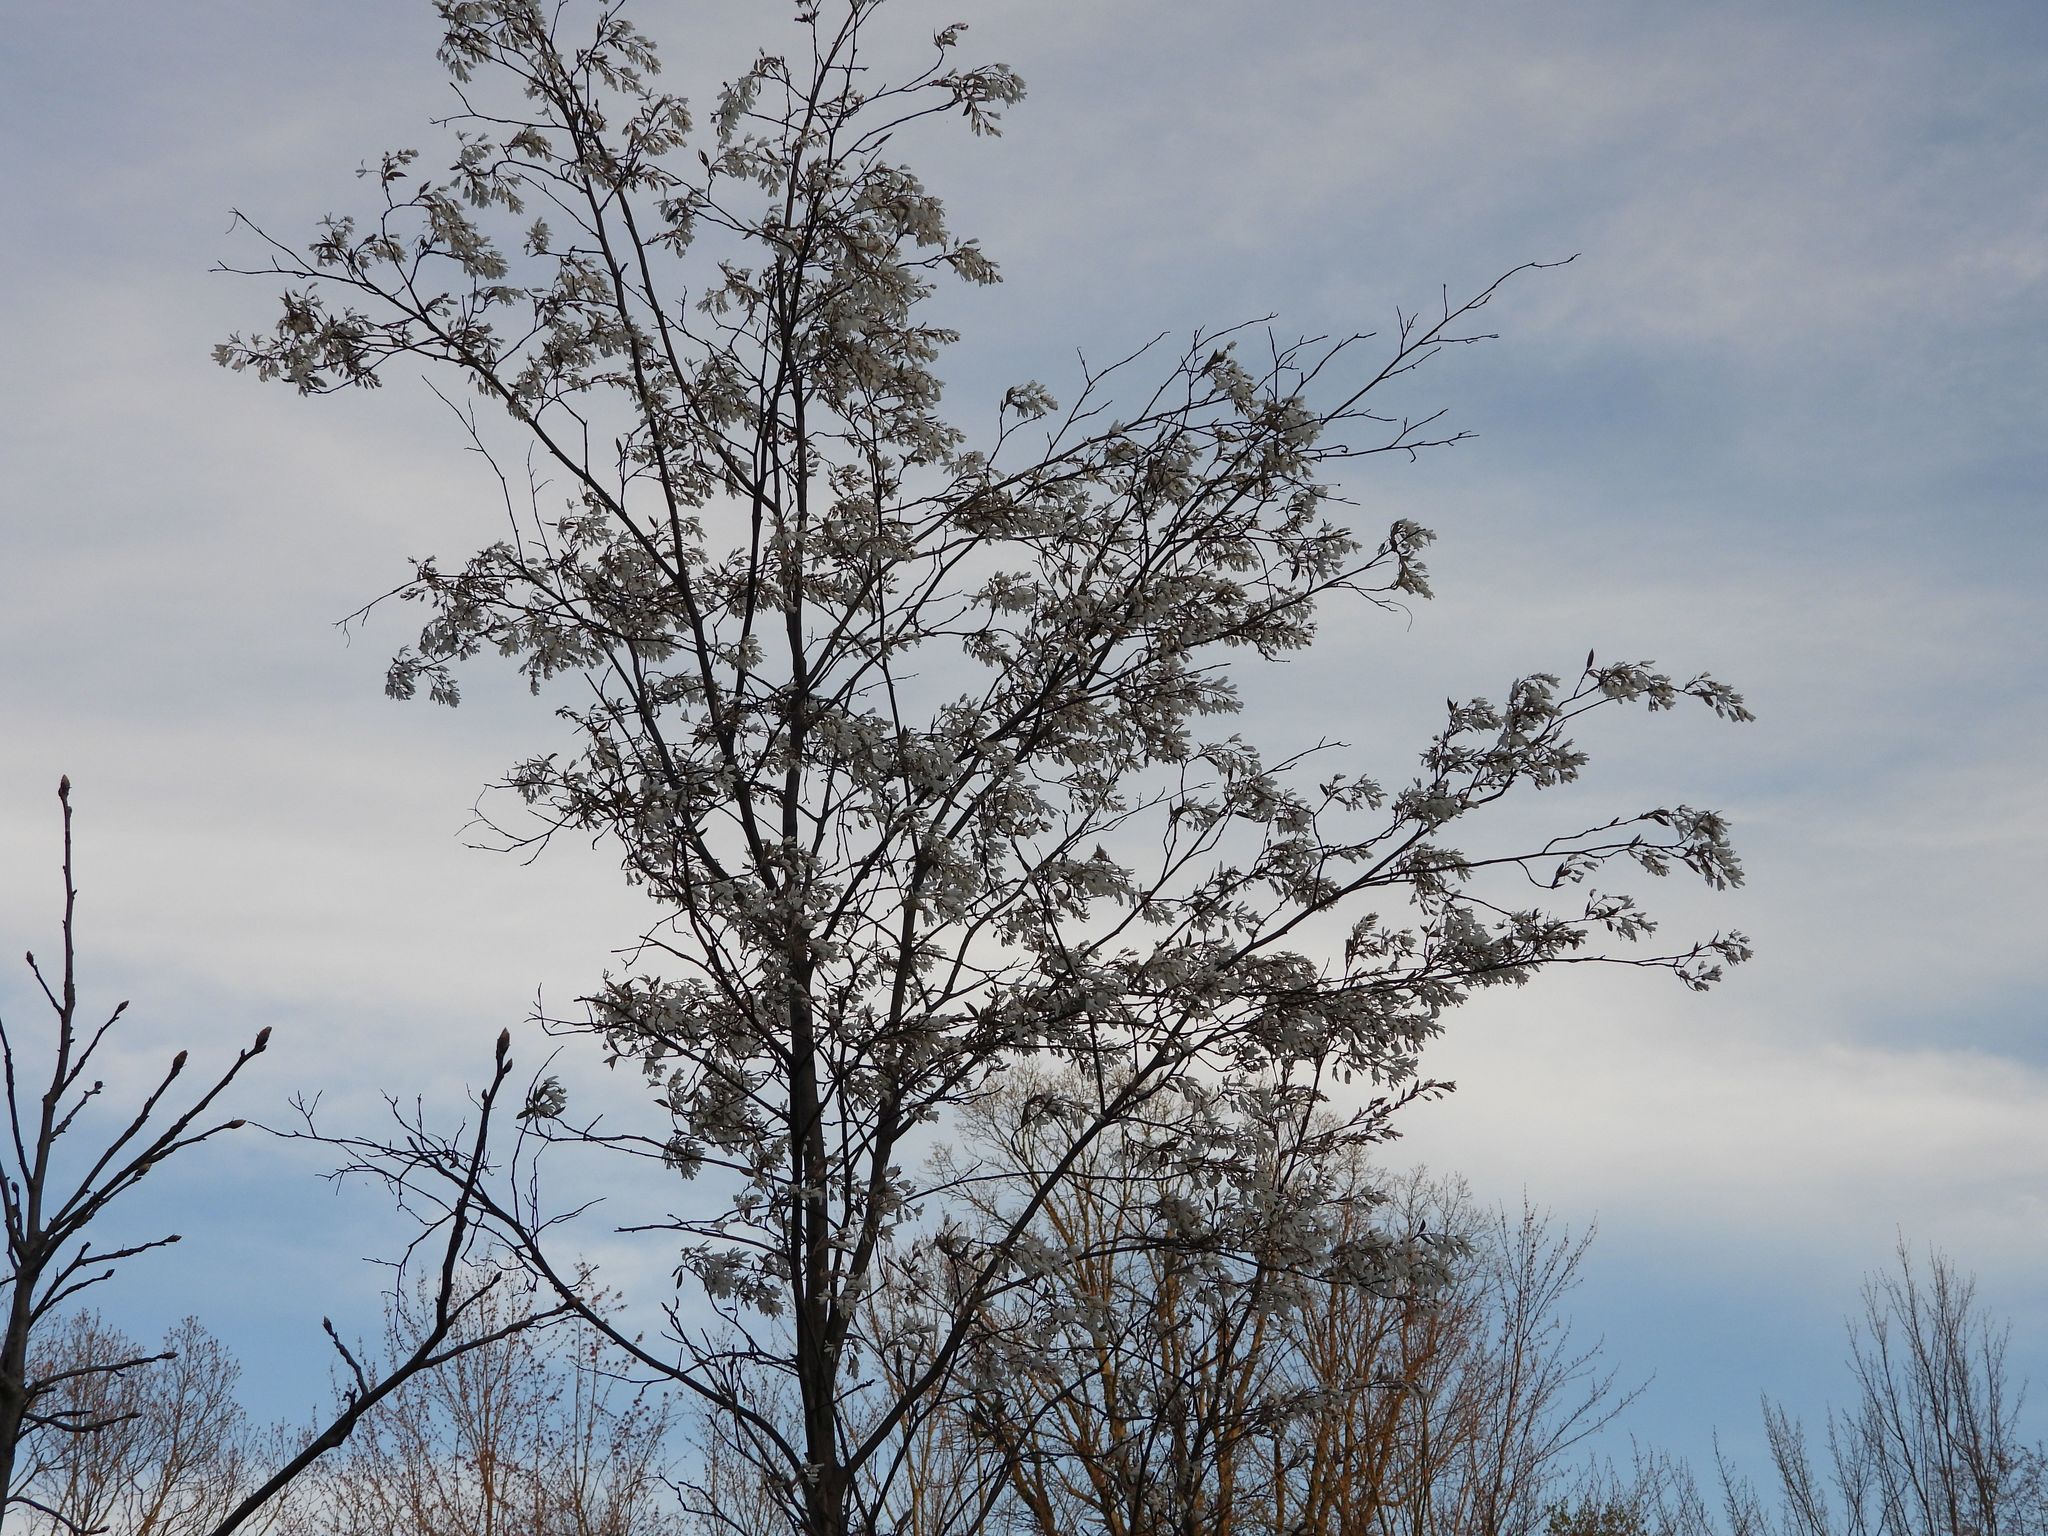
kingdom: Plantae
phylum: Tracheophyta
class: Magnoliopsida
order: Rosales
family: Rosaceae
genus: Amelanchier
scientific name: Amelanchier arborea
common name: Downy serviceberry
